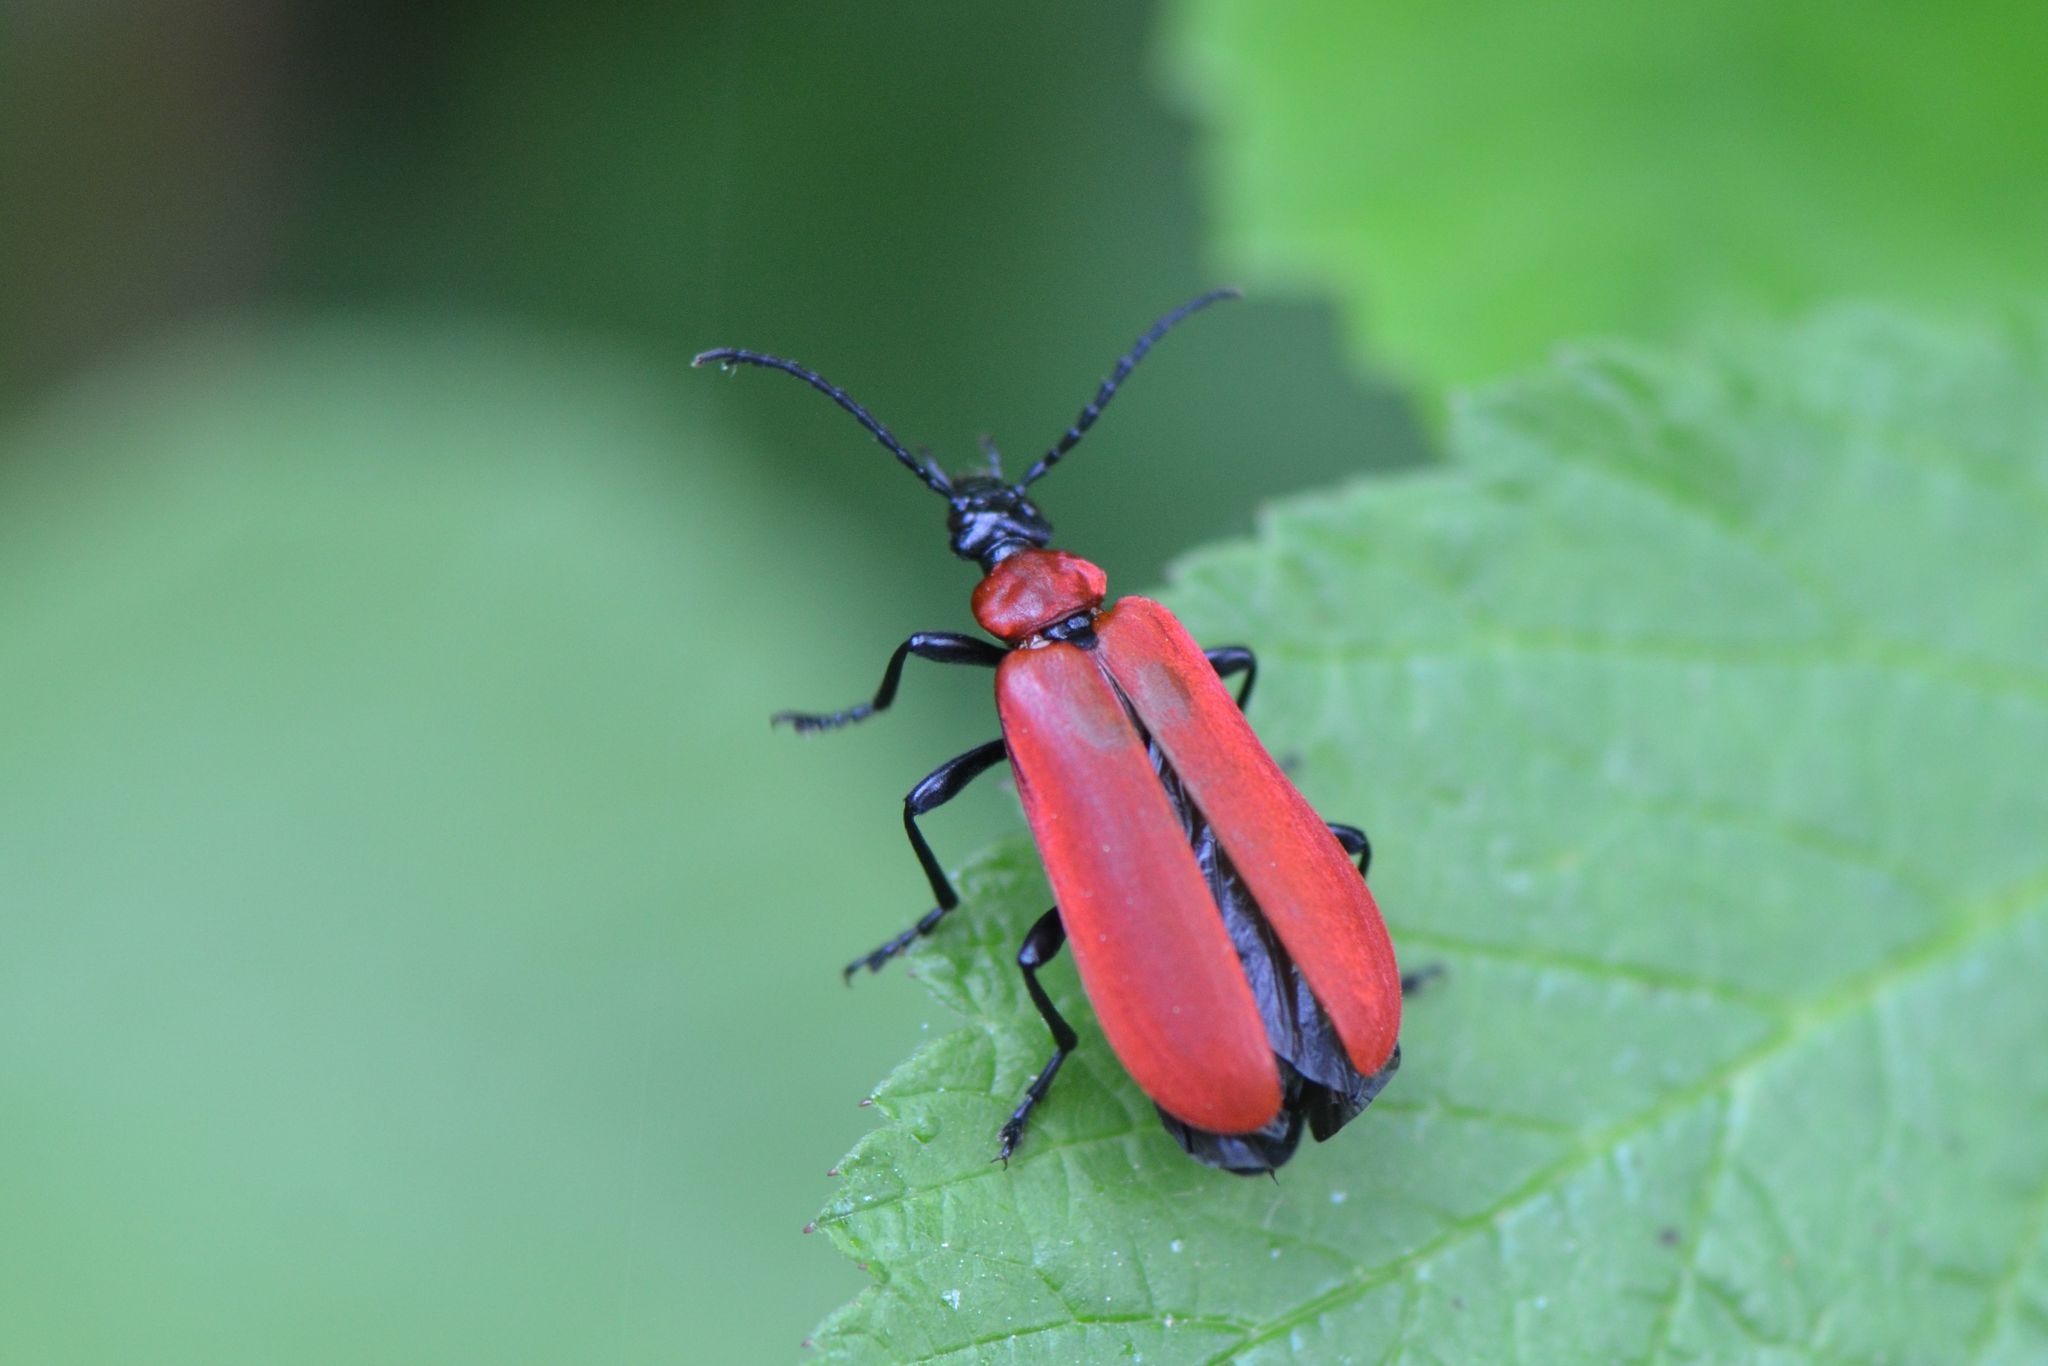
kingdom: Animalia
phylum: Arthropoda
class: Insecta
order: Coleoptera
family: Pyrochroidae
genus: Pyrochroa
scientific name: Pyrochroa coccinea
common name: Black-headed cardinal beetle
